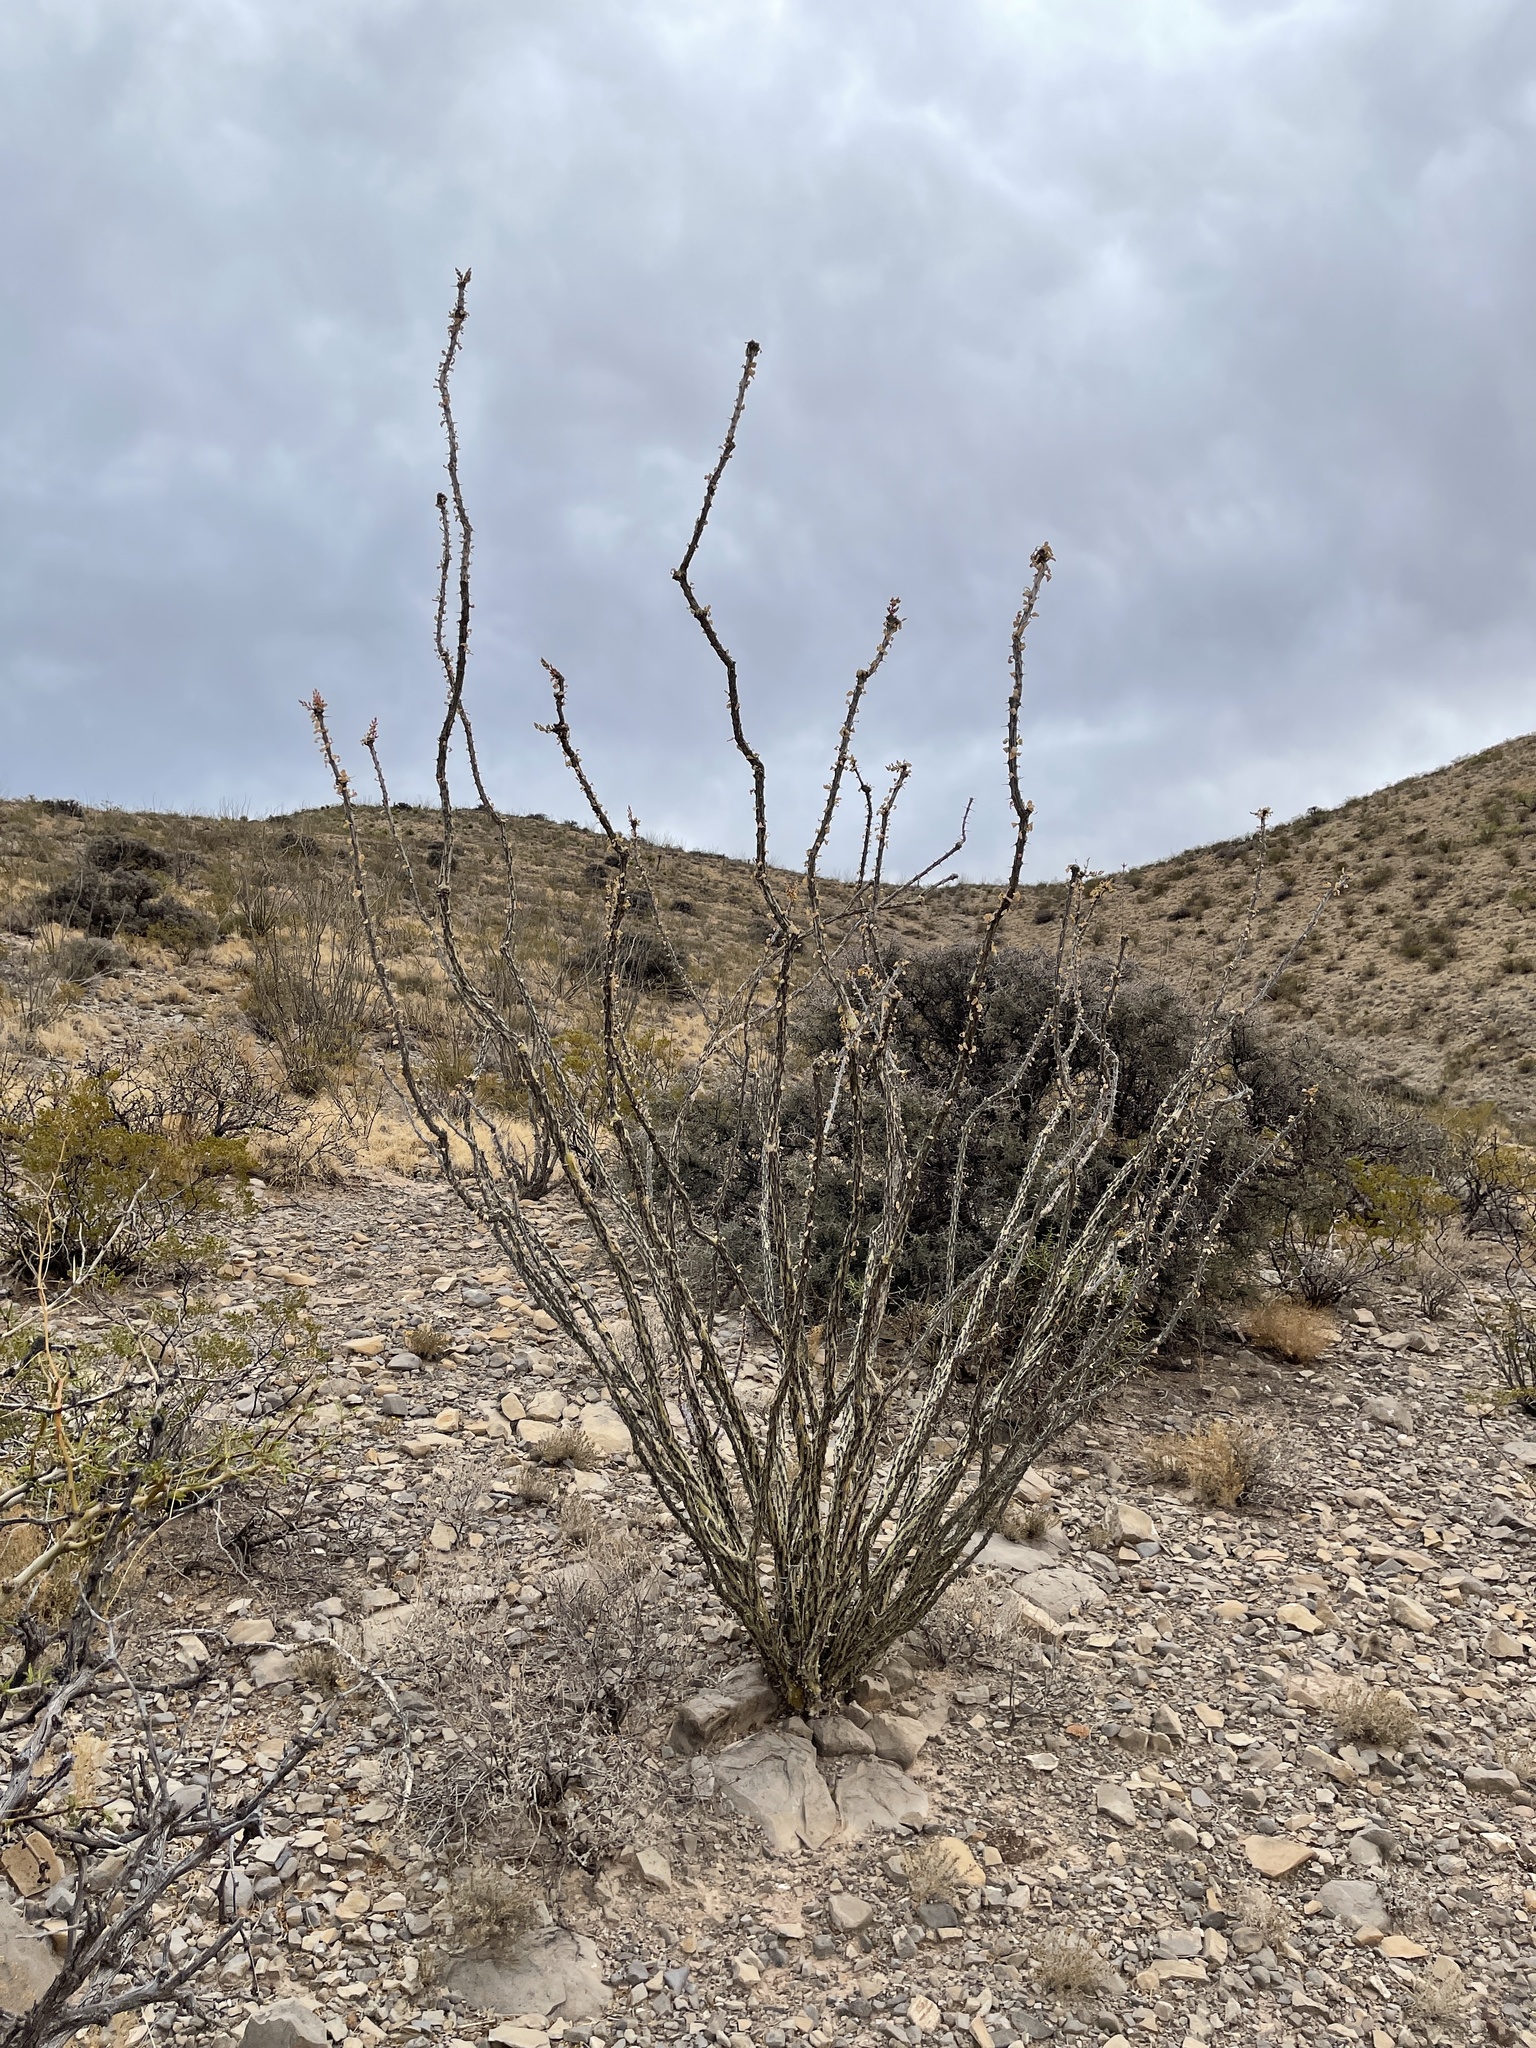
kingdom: Plantae
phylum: Tracheophyta
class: Magnoliopsida
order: Ericales
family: Fouquieriaceae
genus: Fouquieria
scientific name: Fouquieria splendens
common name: Vine-cactus
